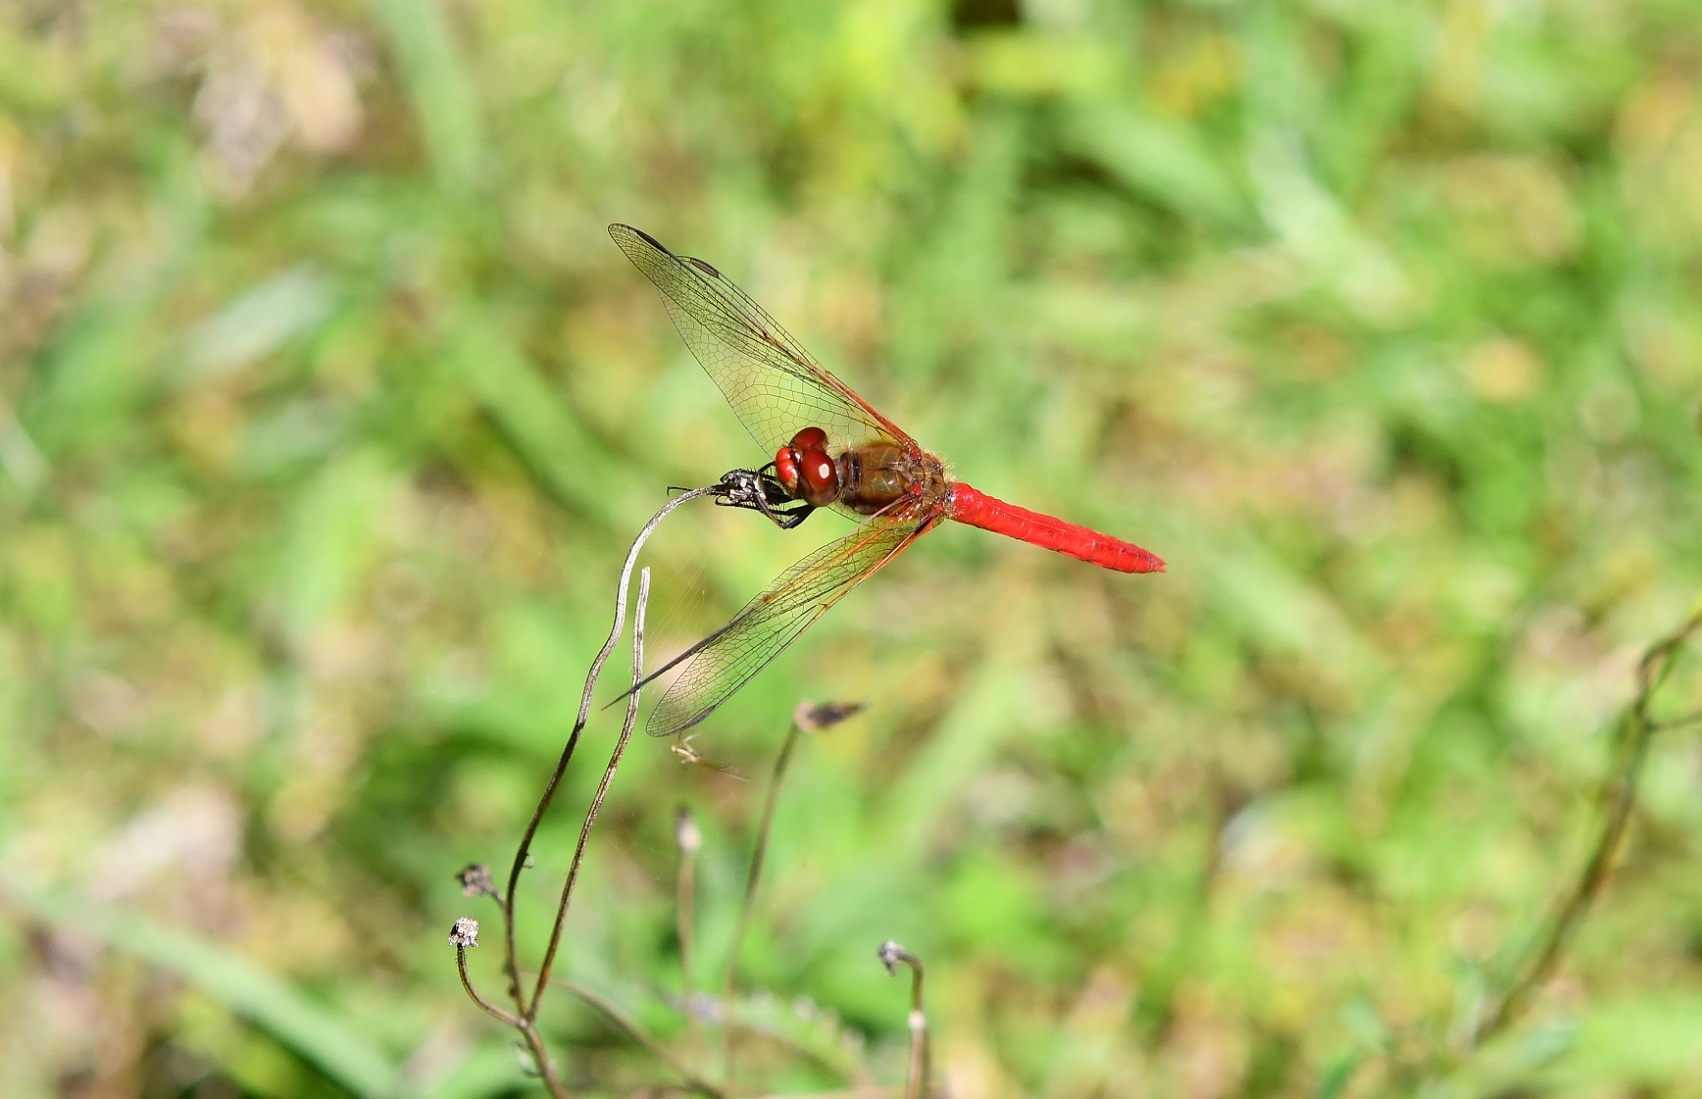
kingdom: Animalia
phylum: Arthropoda
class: Insecta
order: Odonata
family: Libellulidae
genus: Sympetrum
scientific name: Sympetrum illotum
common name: Cardinal meadowhawk
